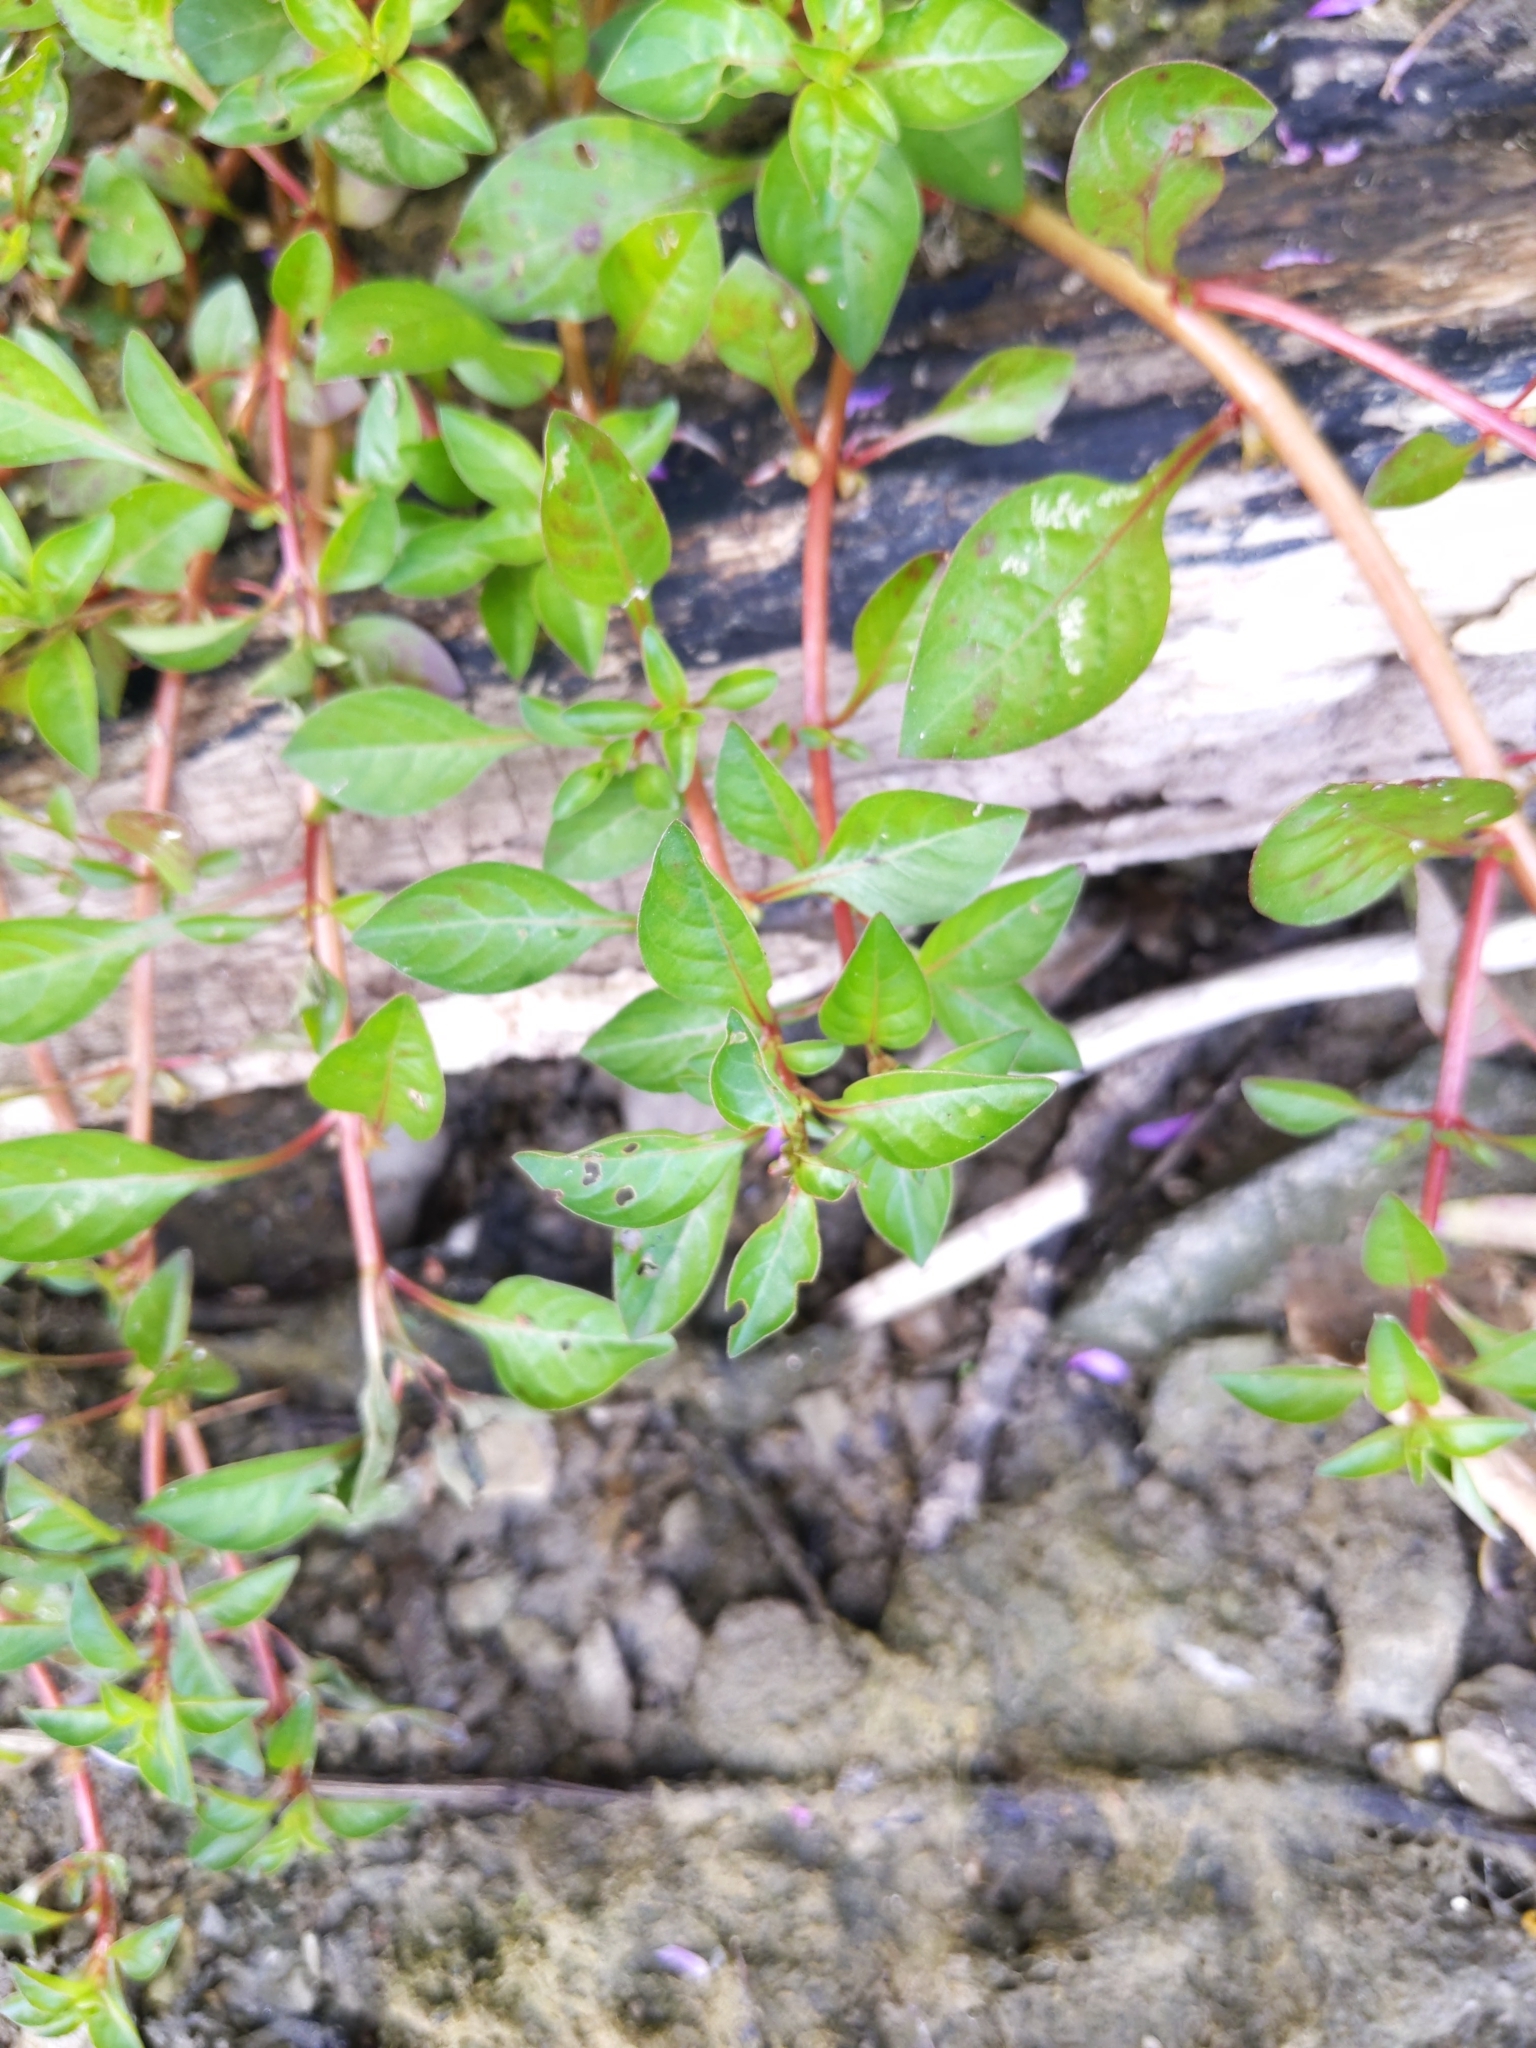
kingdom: Plantae
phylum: Tracheophyta
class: Magnoliopsida
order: Myrtales
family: Onagraceae
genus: Ludwigia
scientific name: Ludwigia palustris
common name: Hampshire-purslane
